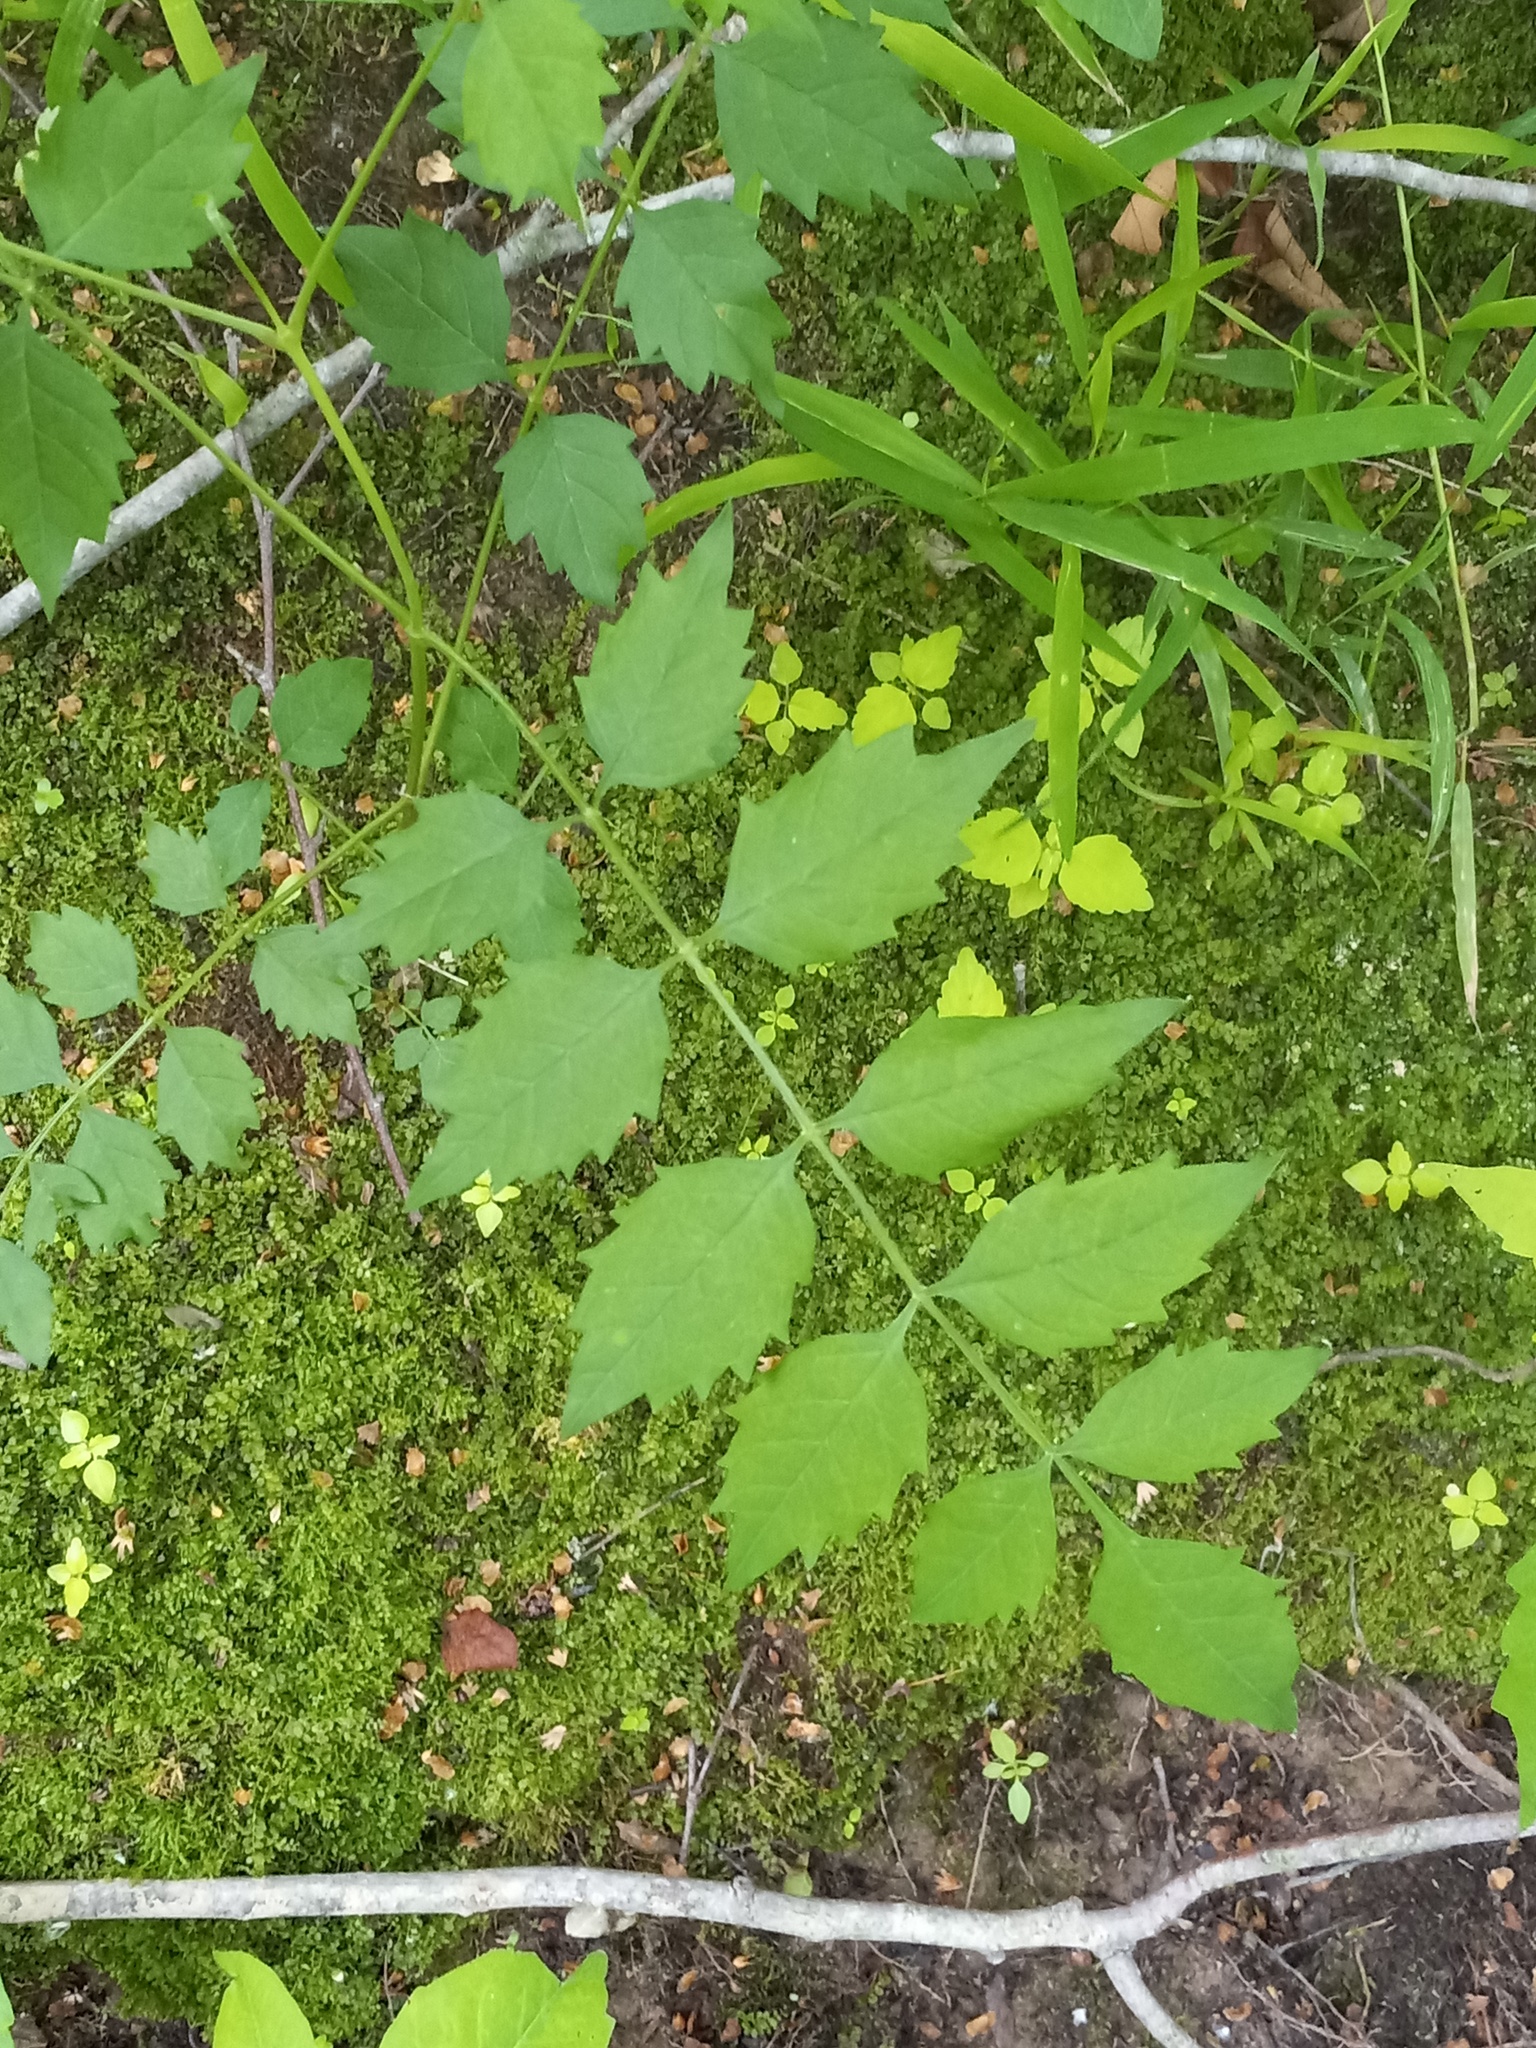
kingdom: Plantae
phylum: Tracheophyta
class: Magnoliopsida
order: Lamiales
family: Bignoniaceae
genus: Campsis
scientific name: Campsis radicans
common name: Trumpet-creeper
